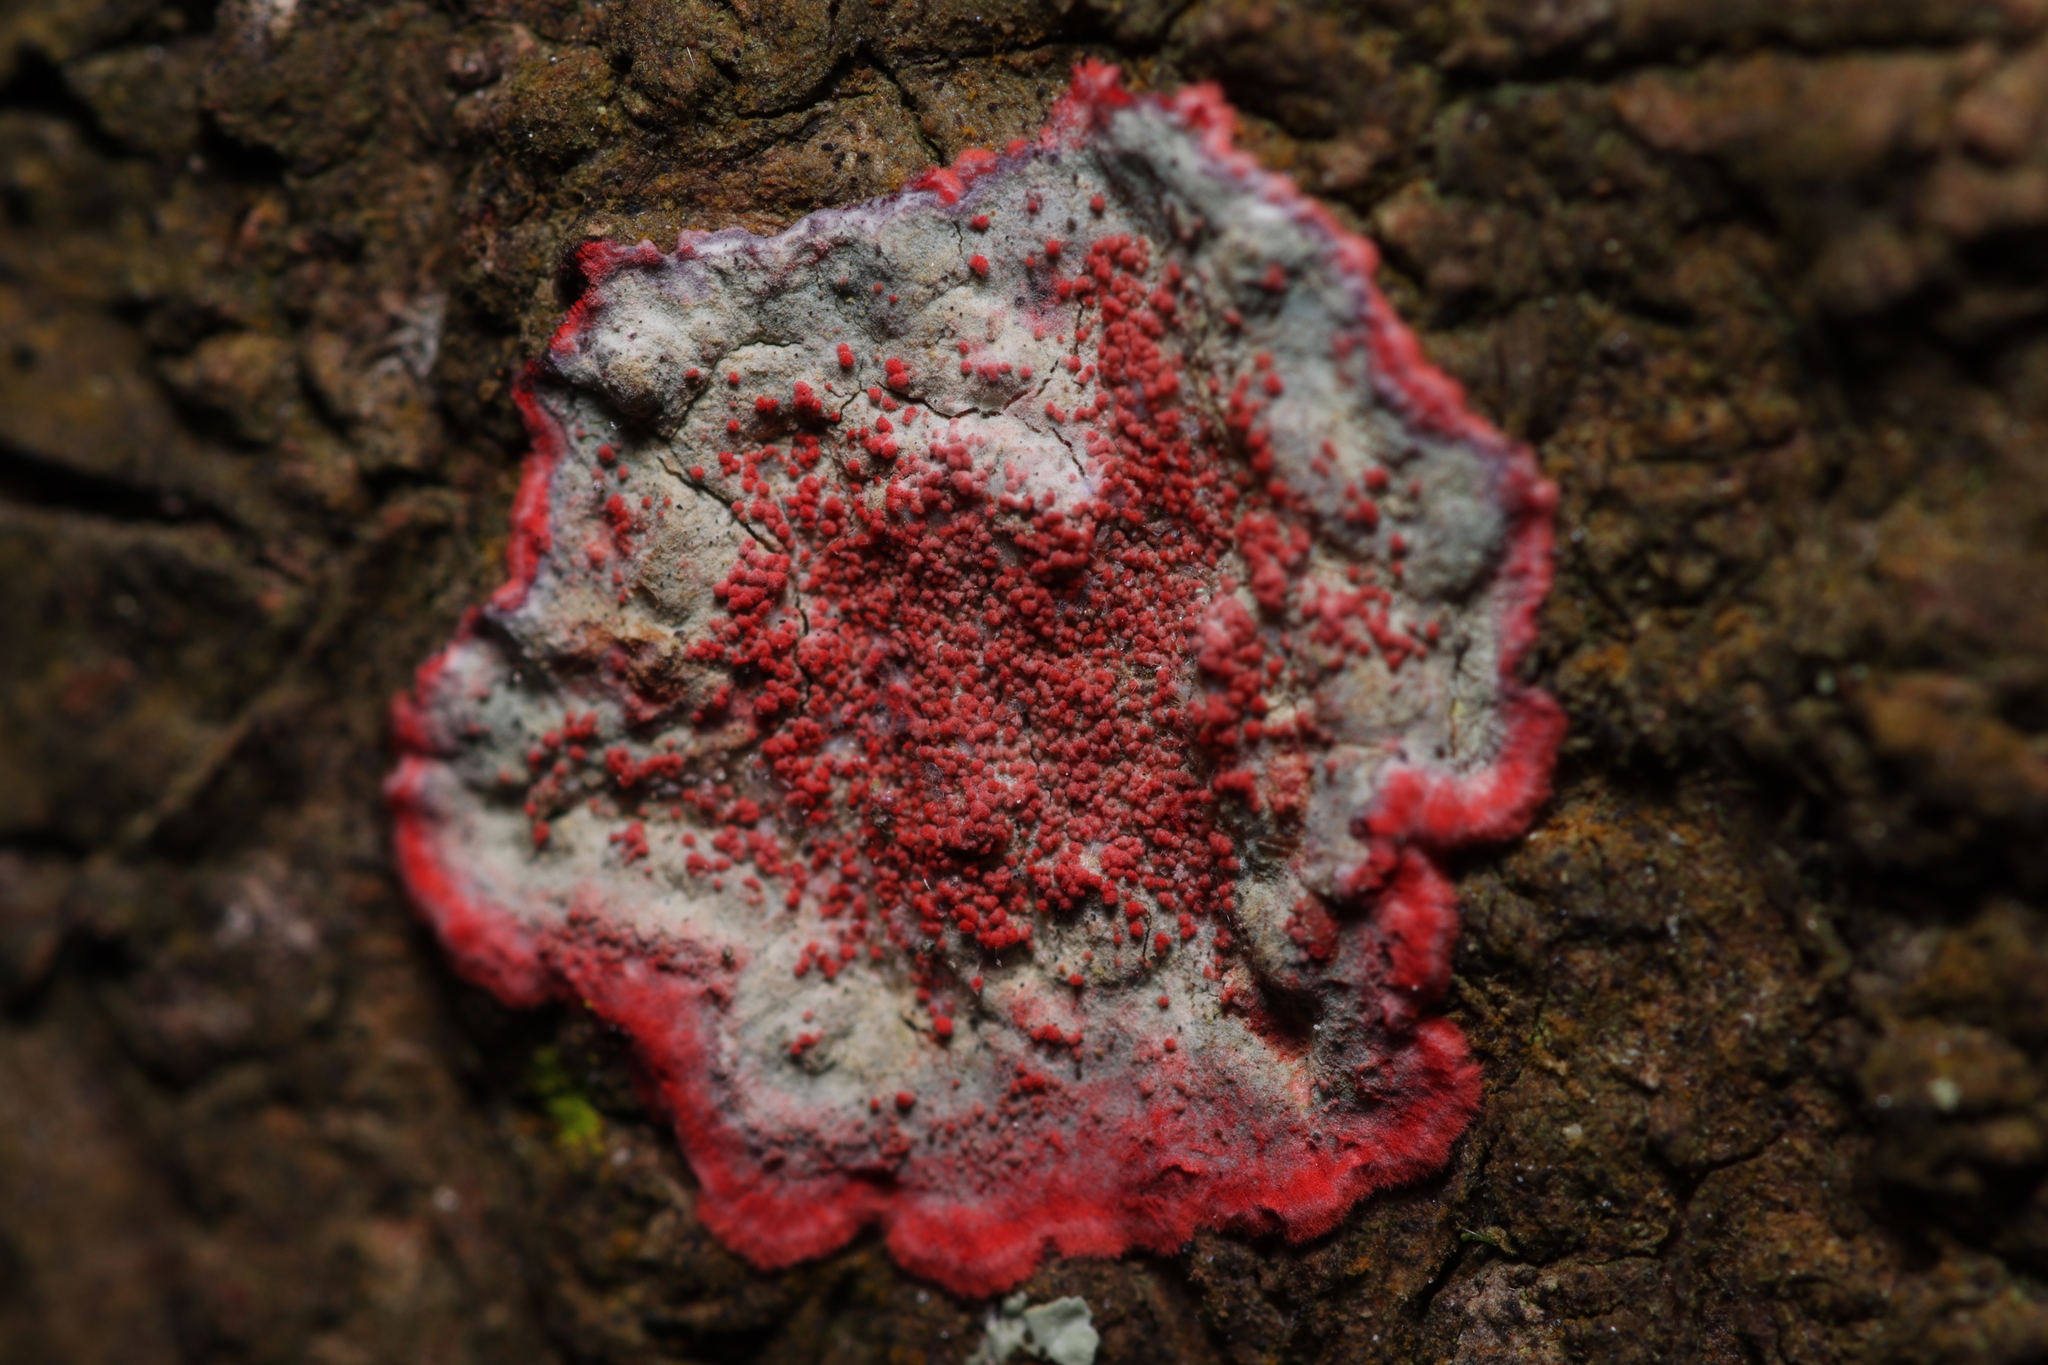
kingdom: Fungi
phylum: Ascomycota
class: Arthoniomycetes
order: Arthoniales
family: Arthoniaceae
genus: Herpothallon
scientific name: Herpothallon rubrocinctum
